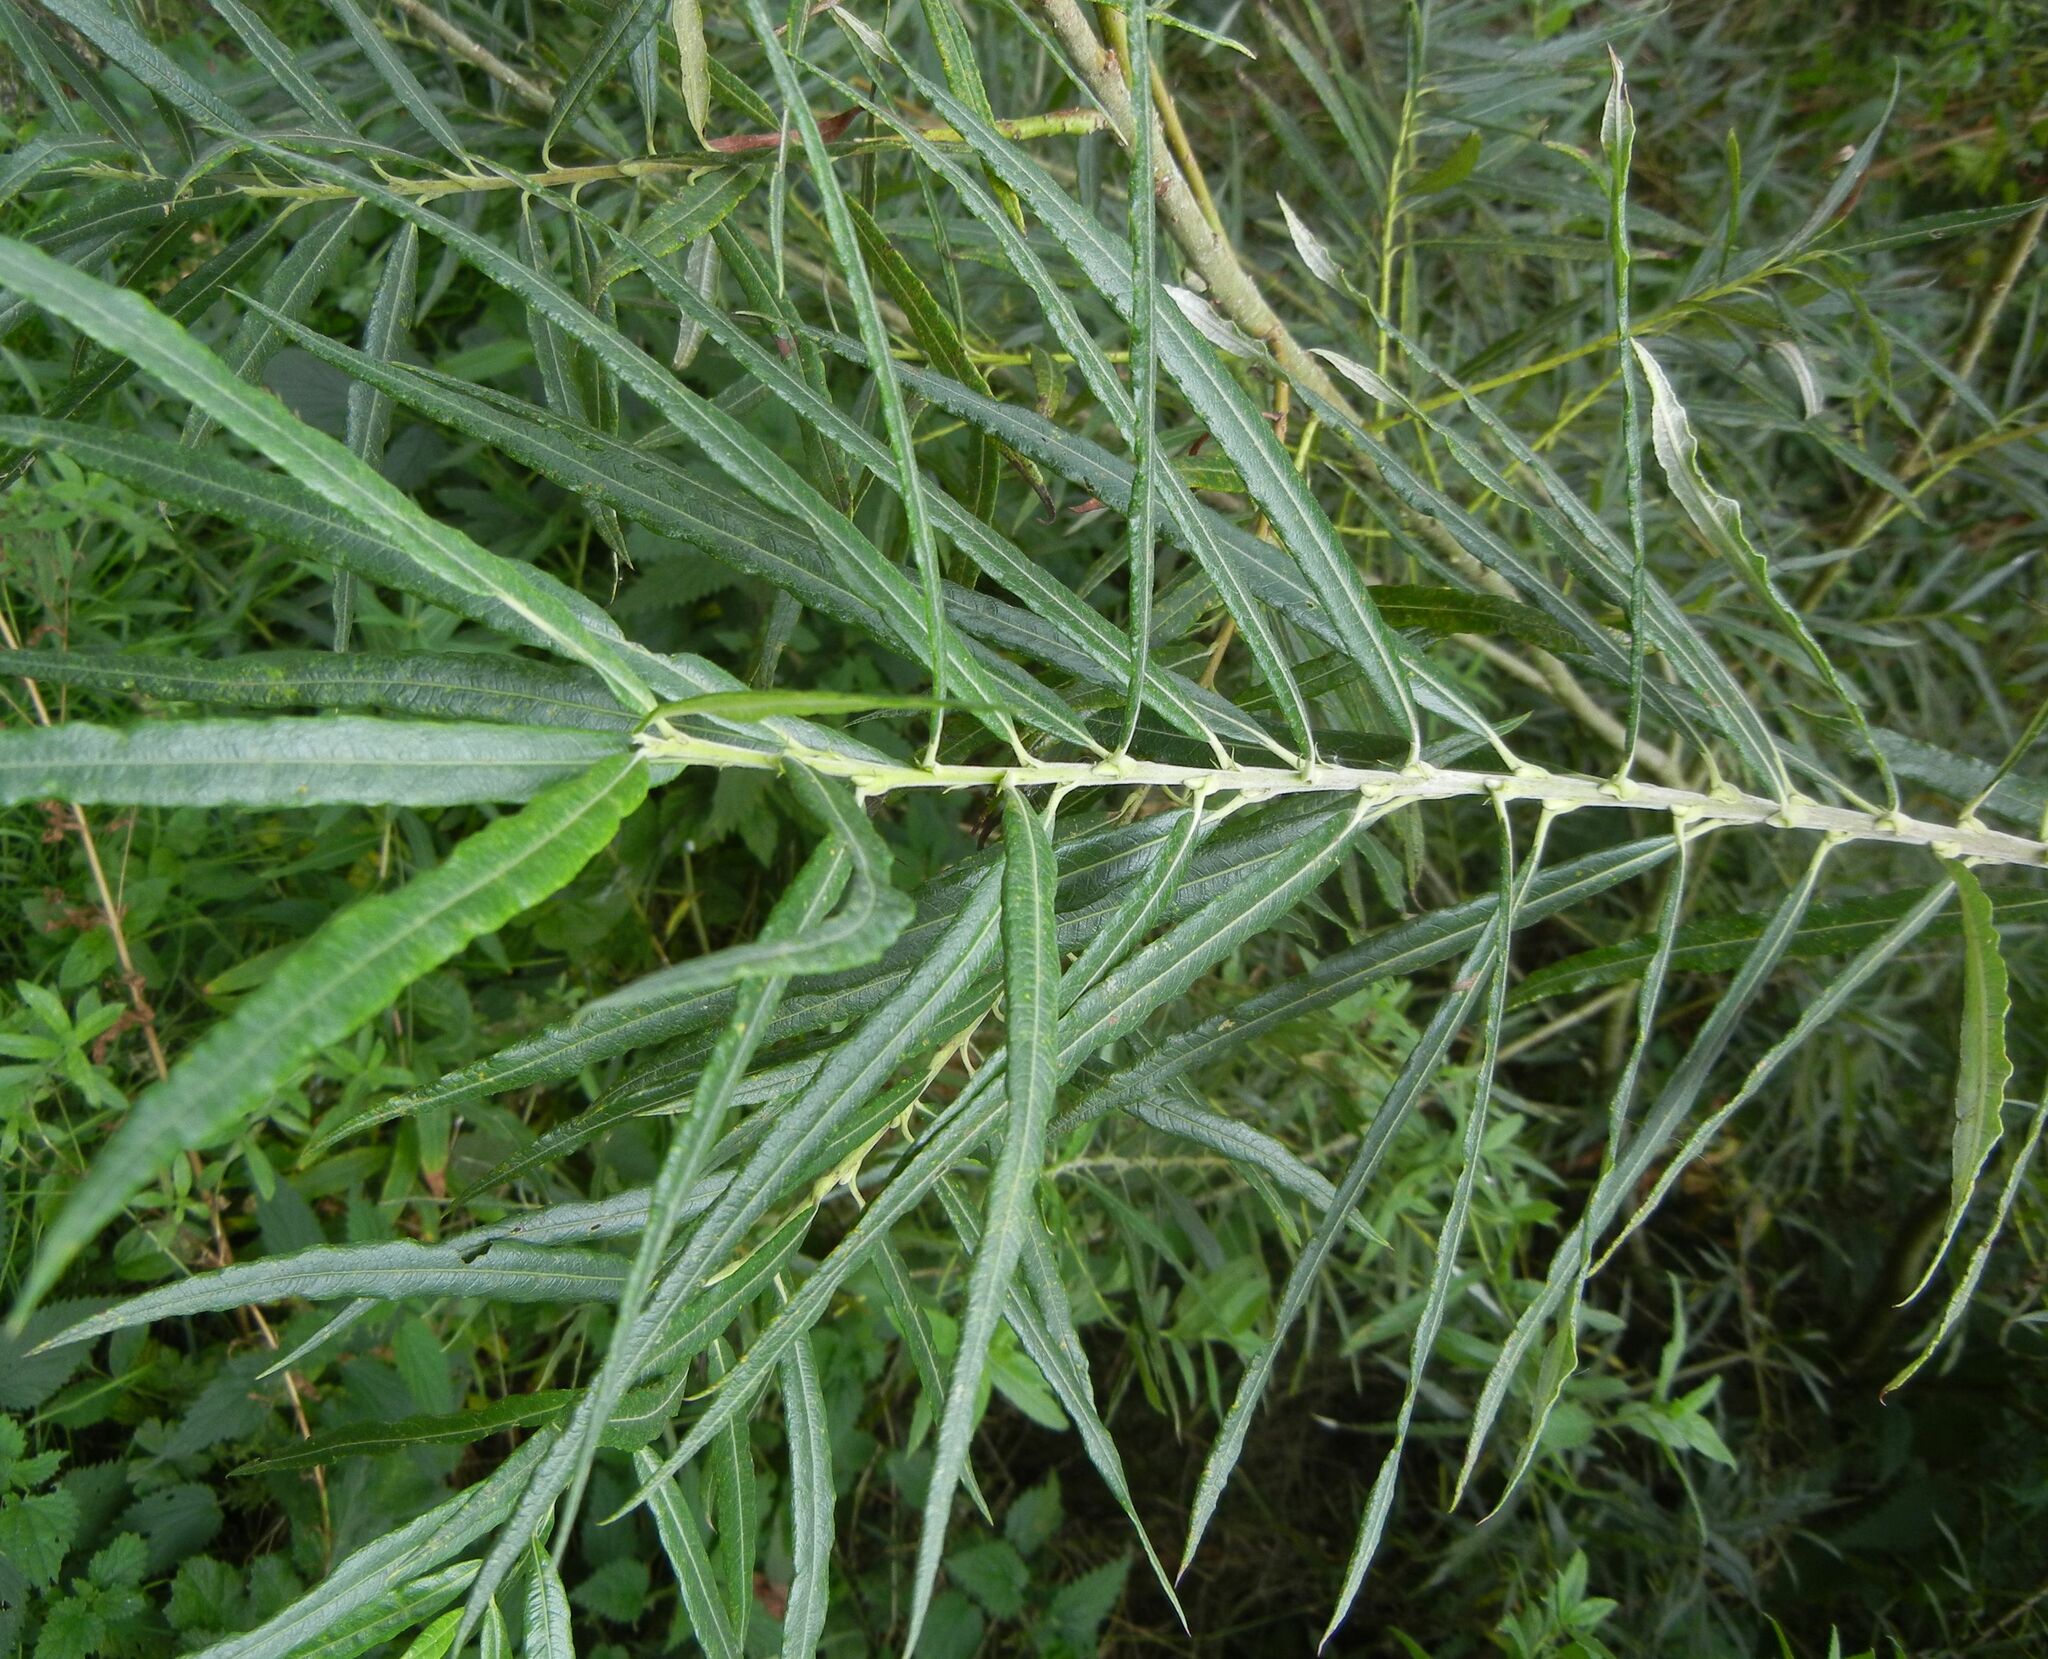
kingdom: Plantae
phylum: Tracheophyta
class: Magnoliopsida
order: Malpighiales
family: Salicaceae
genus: Salix
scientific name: Salix viminalis
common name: Osier
